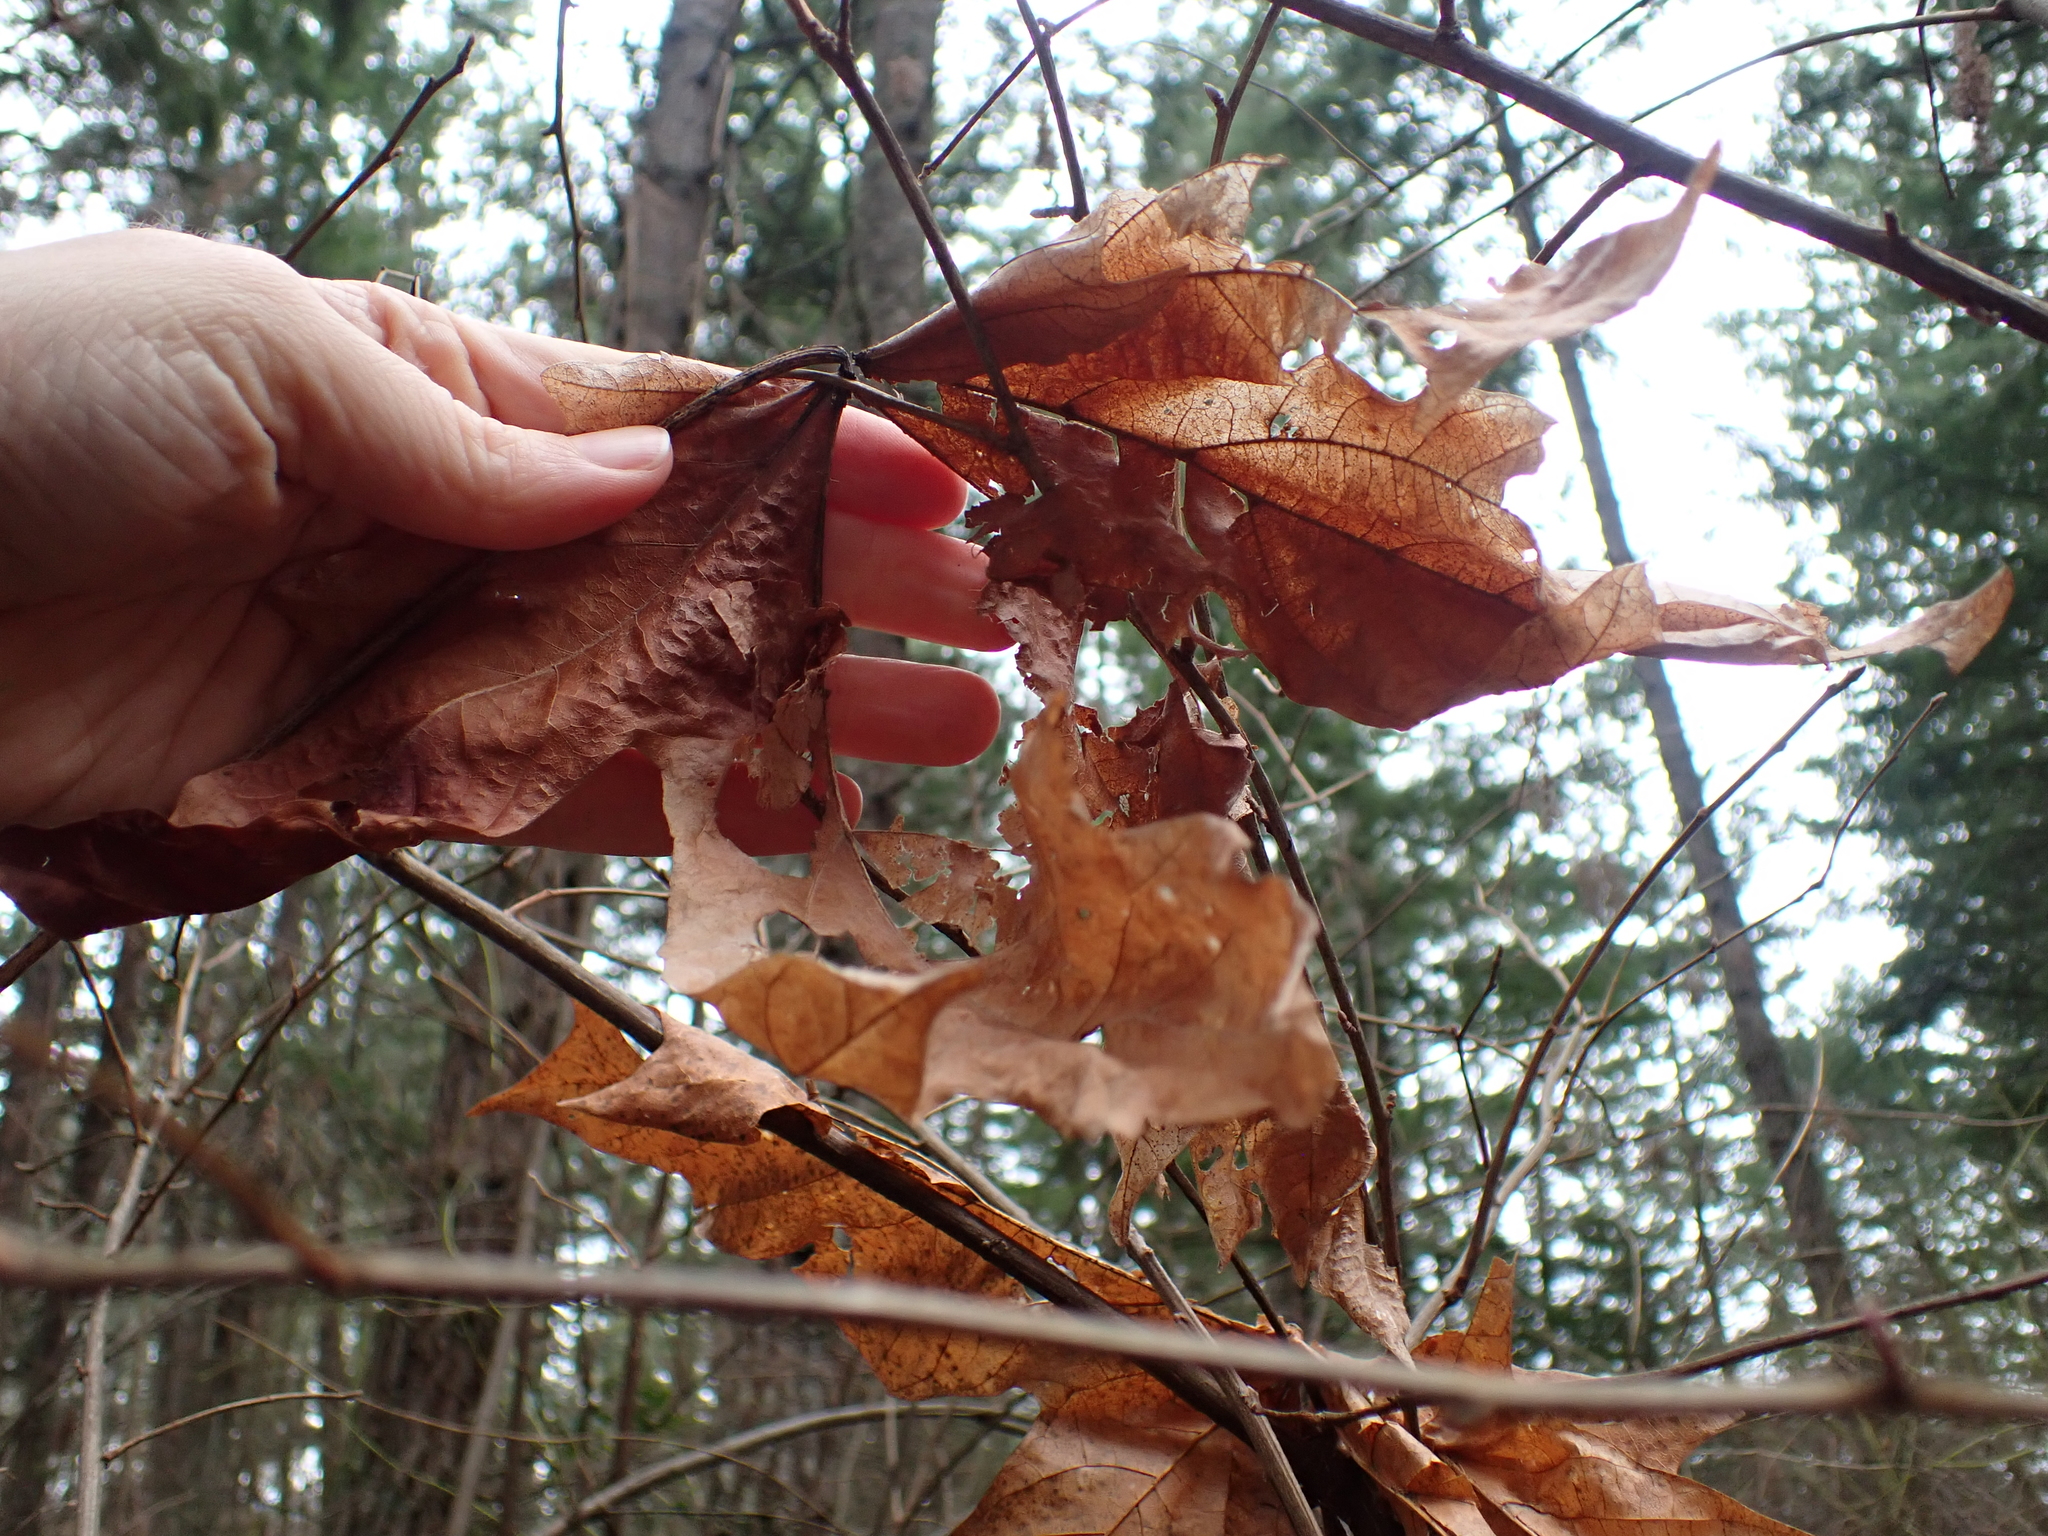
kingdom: Plantae
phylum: Tracheophyta
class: Magnoliopsida
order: Sapindales
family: Sapindaceae
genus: Acer
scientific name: Acer macrophyllum
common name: Oregon maple
